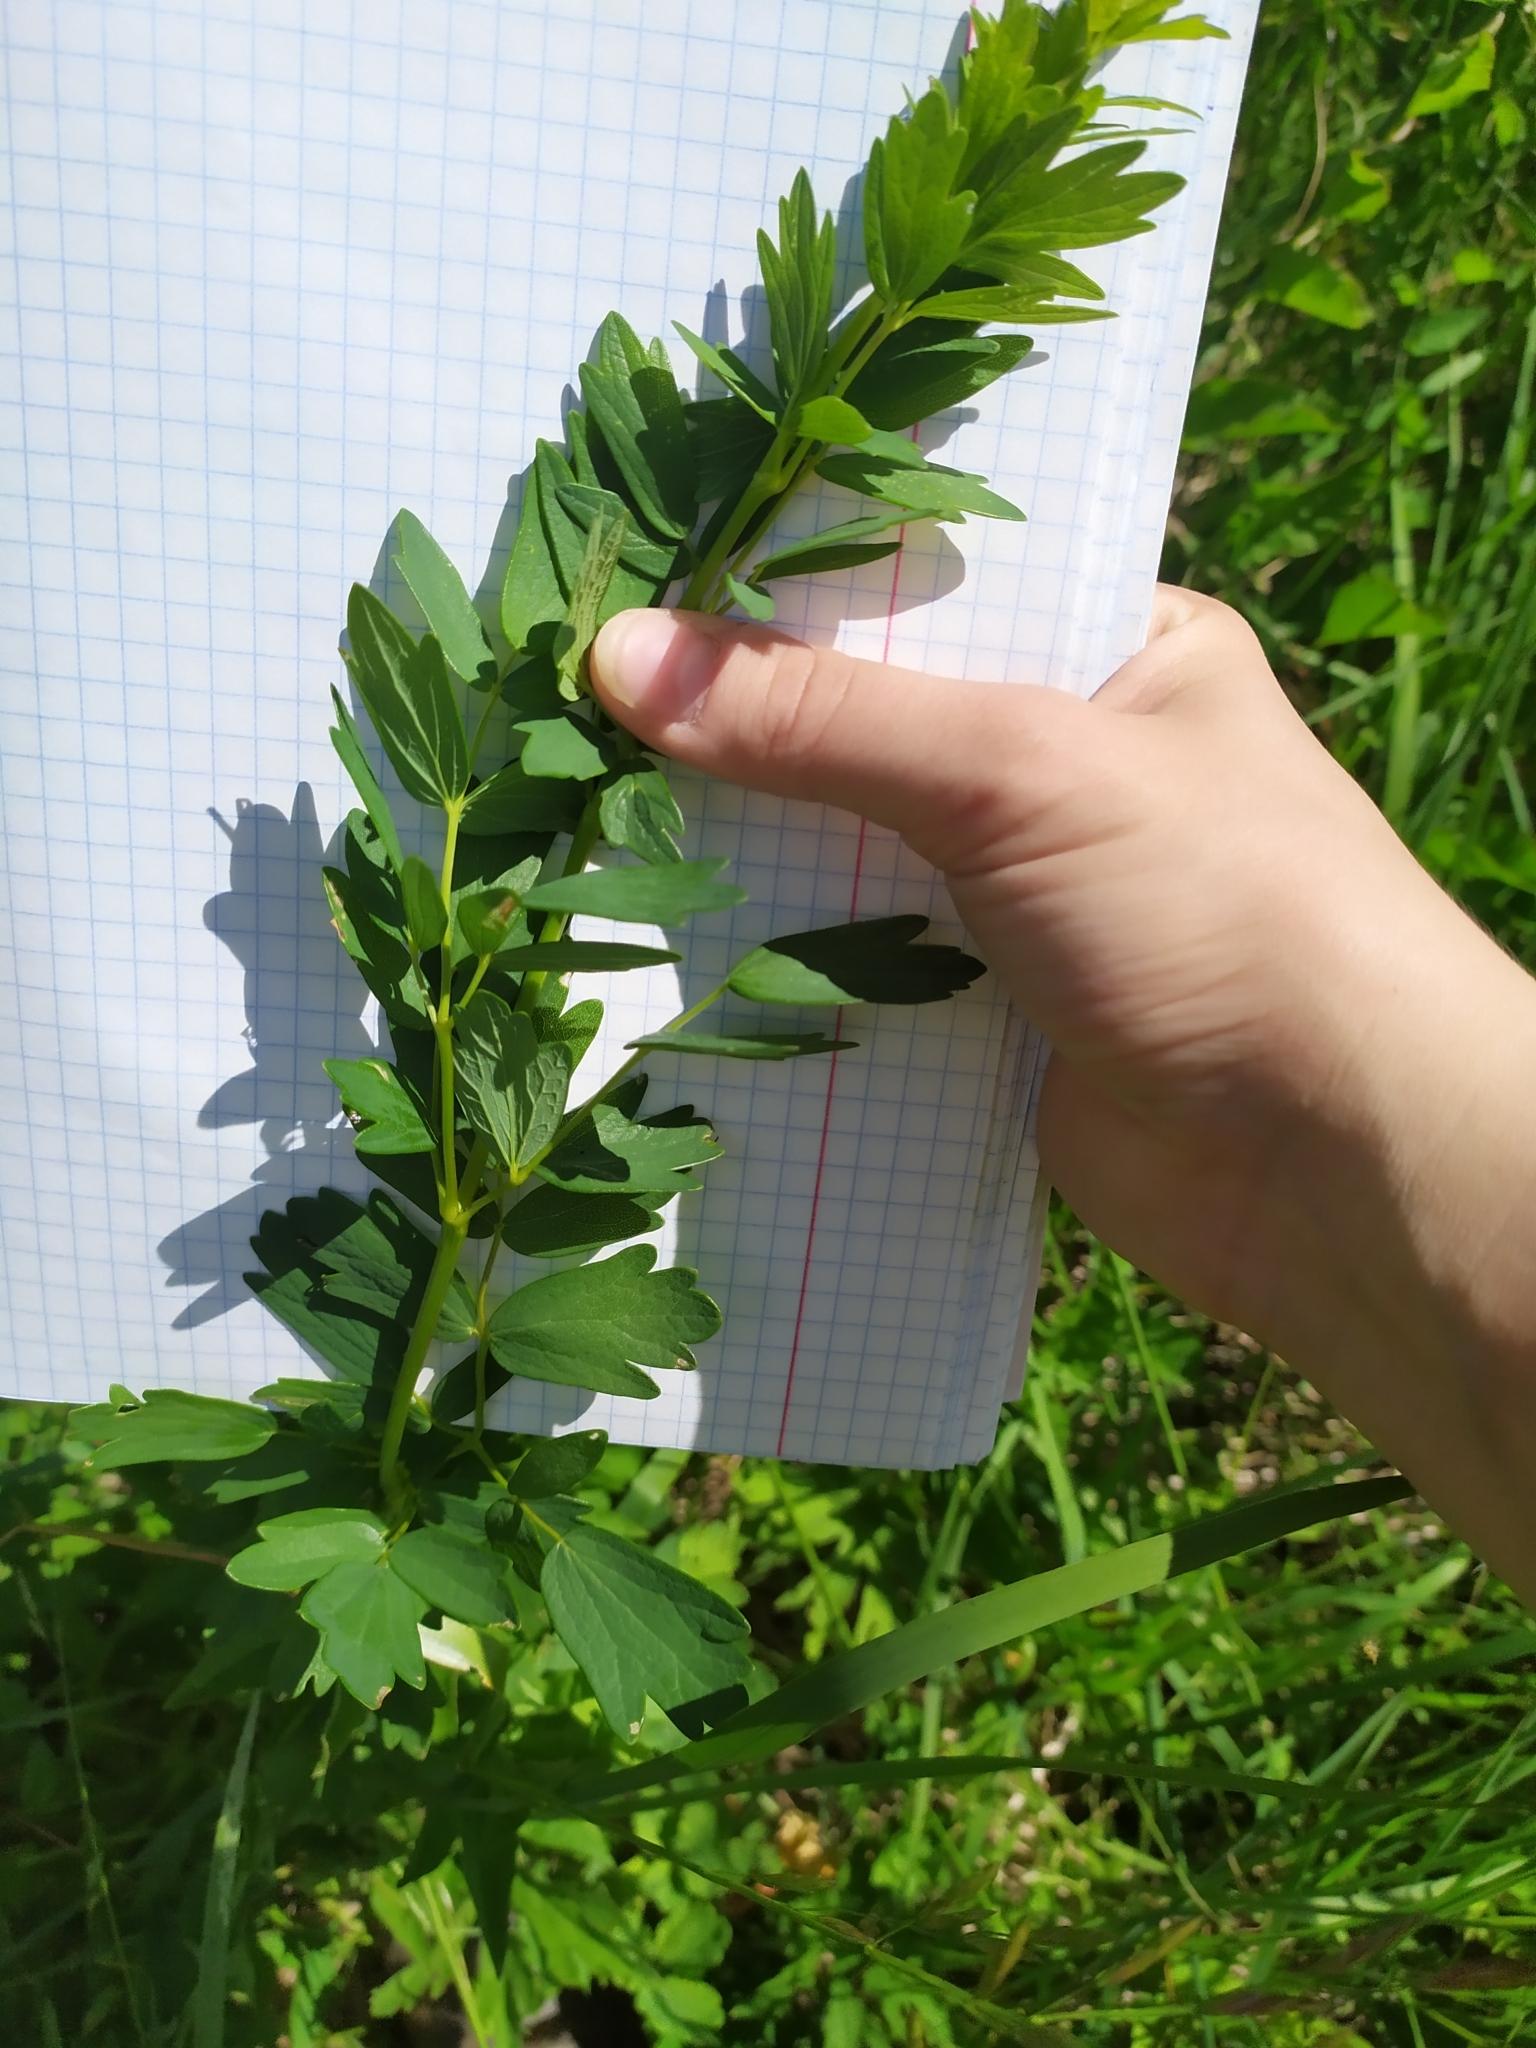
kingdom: Plantae
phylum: Tracheophyta
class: Magnoliopsida
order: Ranunculales
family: Ranunculaceae
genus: Thalictrum
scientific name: Thalictrum simplex
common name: Small meadow-rue
